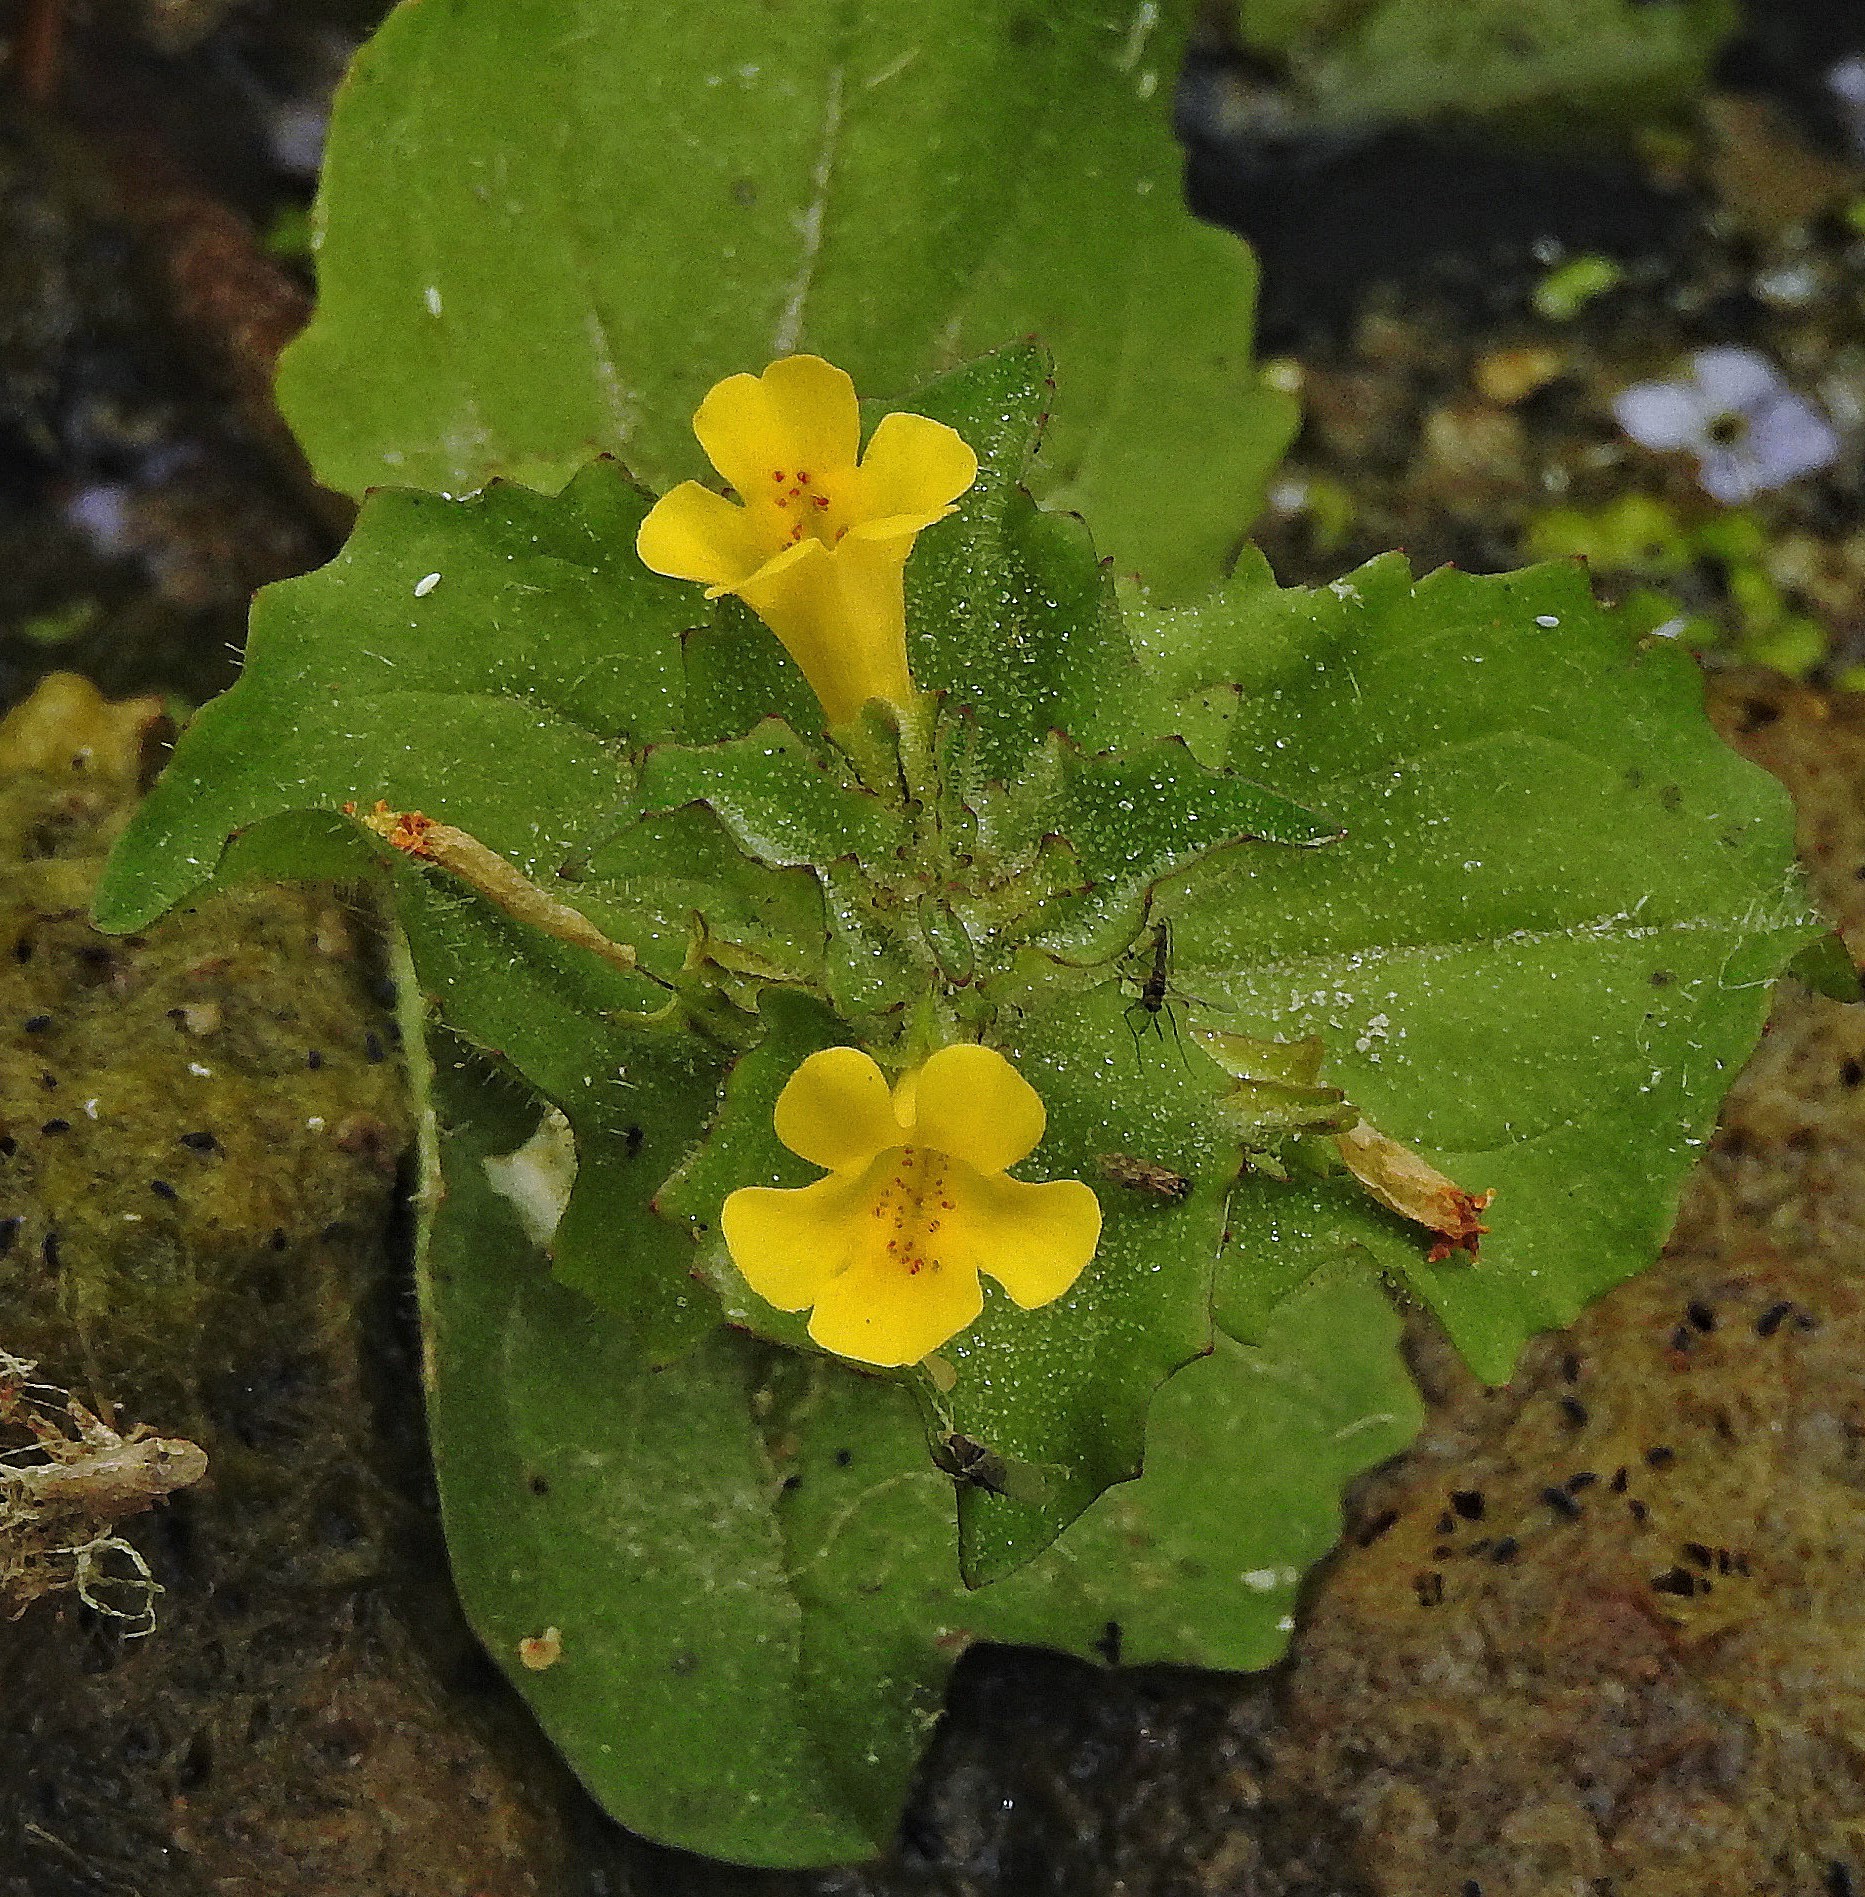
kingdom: Plantae
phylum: Tracheophyta
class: Magnoliopsida
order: Lamiales
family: Phrymaceae
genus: Erythranthe
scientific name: Erythranthe glabrata
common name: Round-leaved monkeyflower
